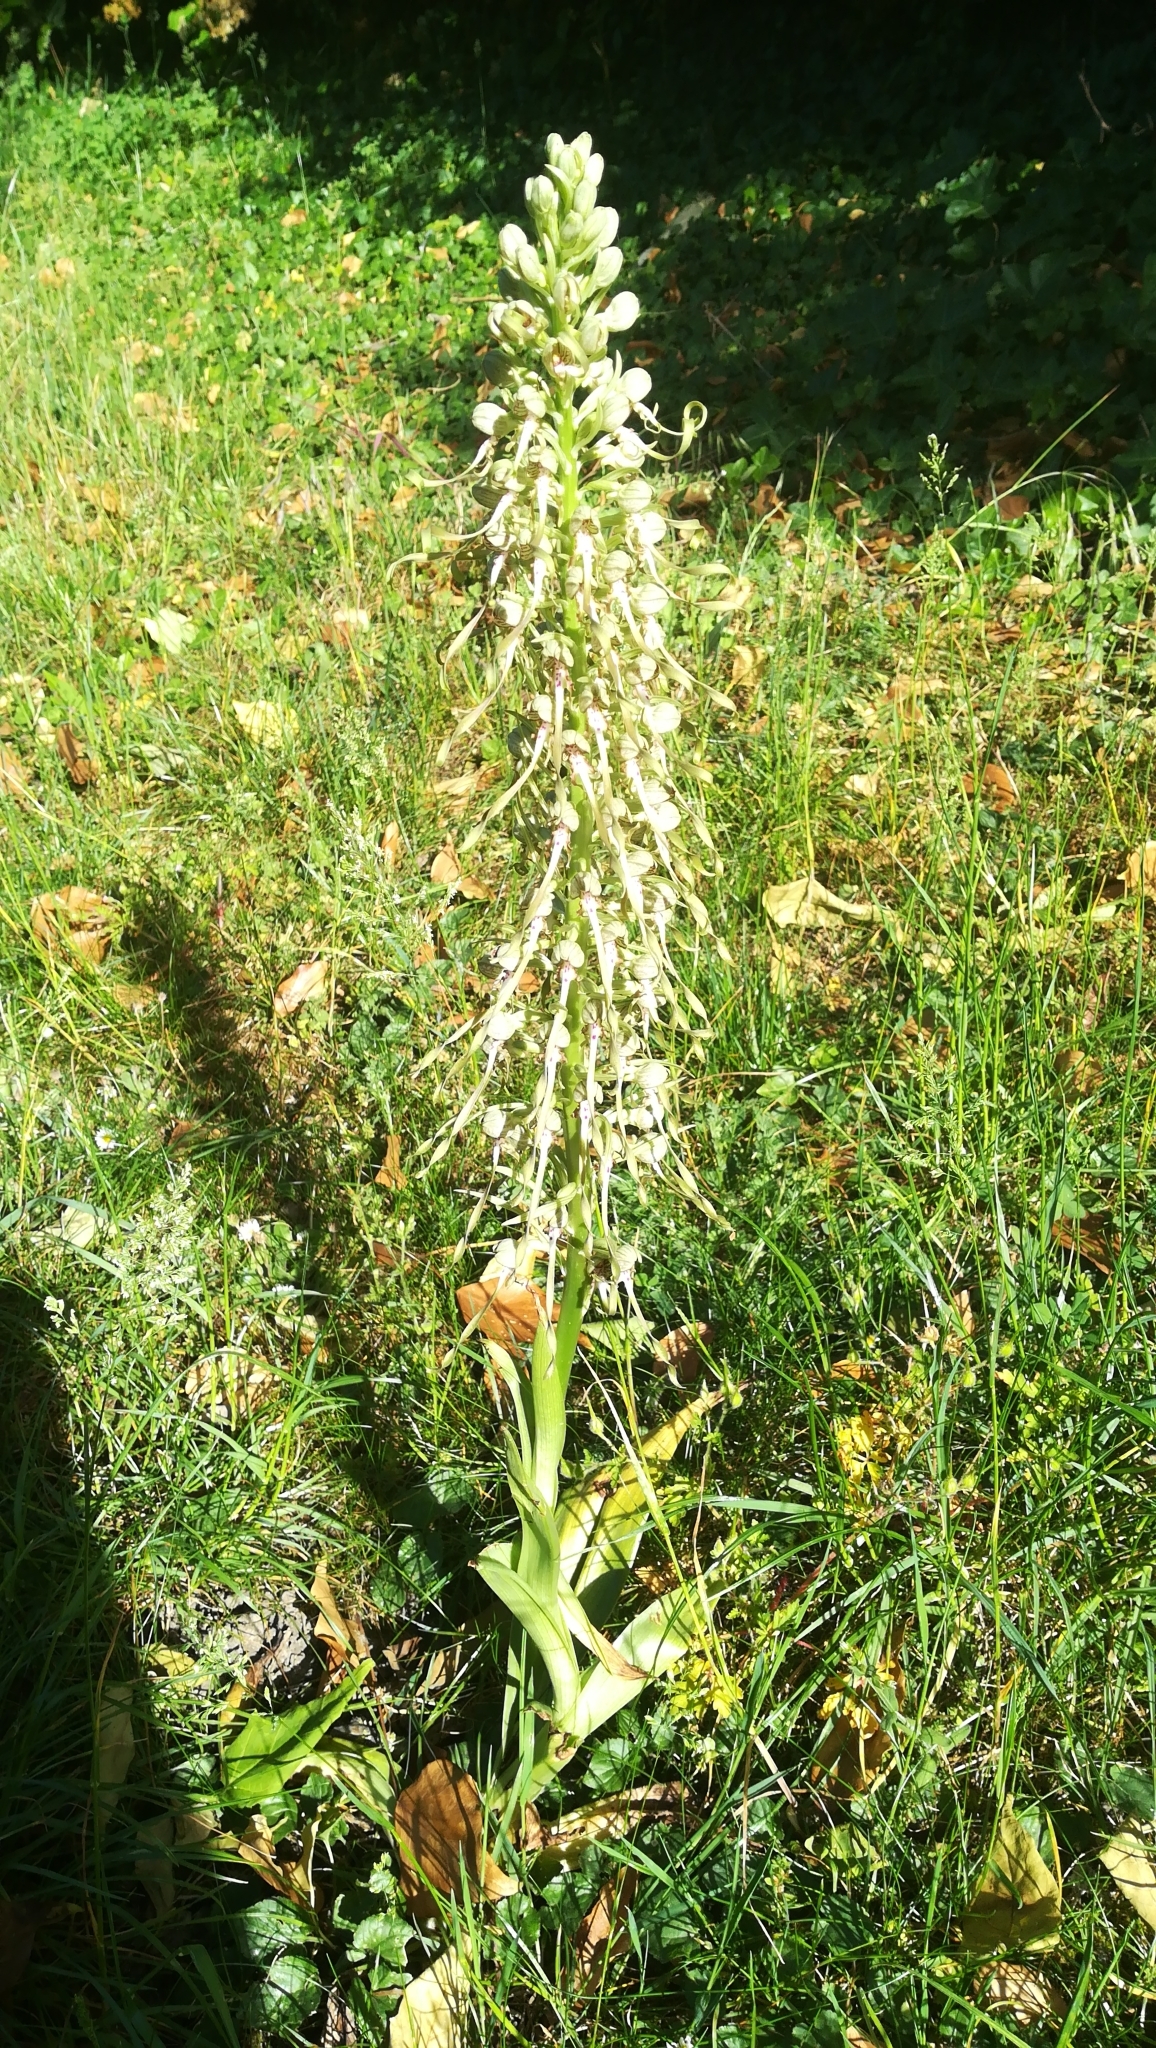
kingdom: Plantae
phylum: Tracheophyta
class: Liliopsida
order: Asparagales
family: Orchidaceae
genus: Himantoglossum
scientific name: Himantoglossum hircinum
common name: Lizard orchid
